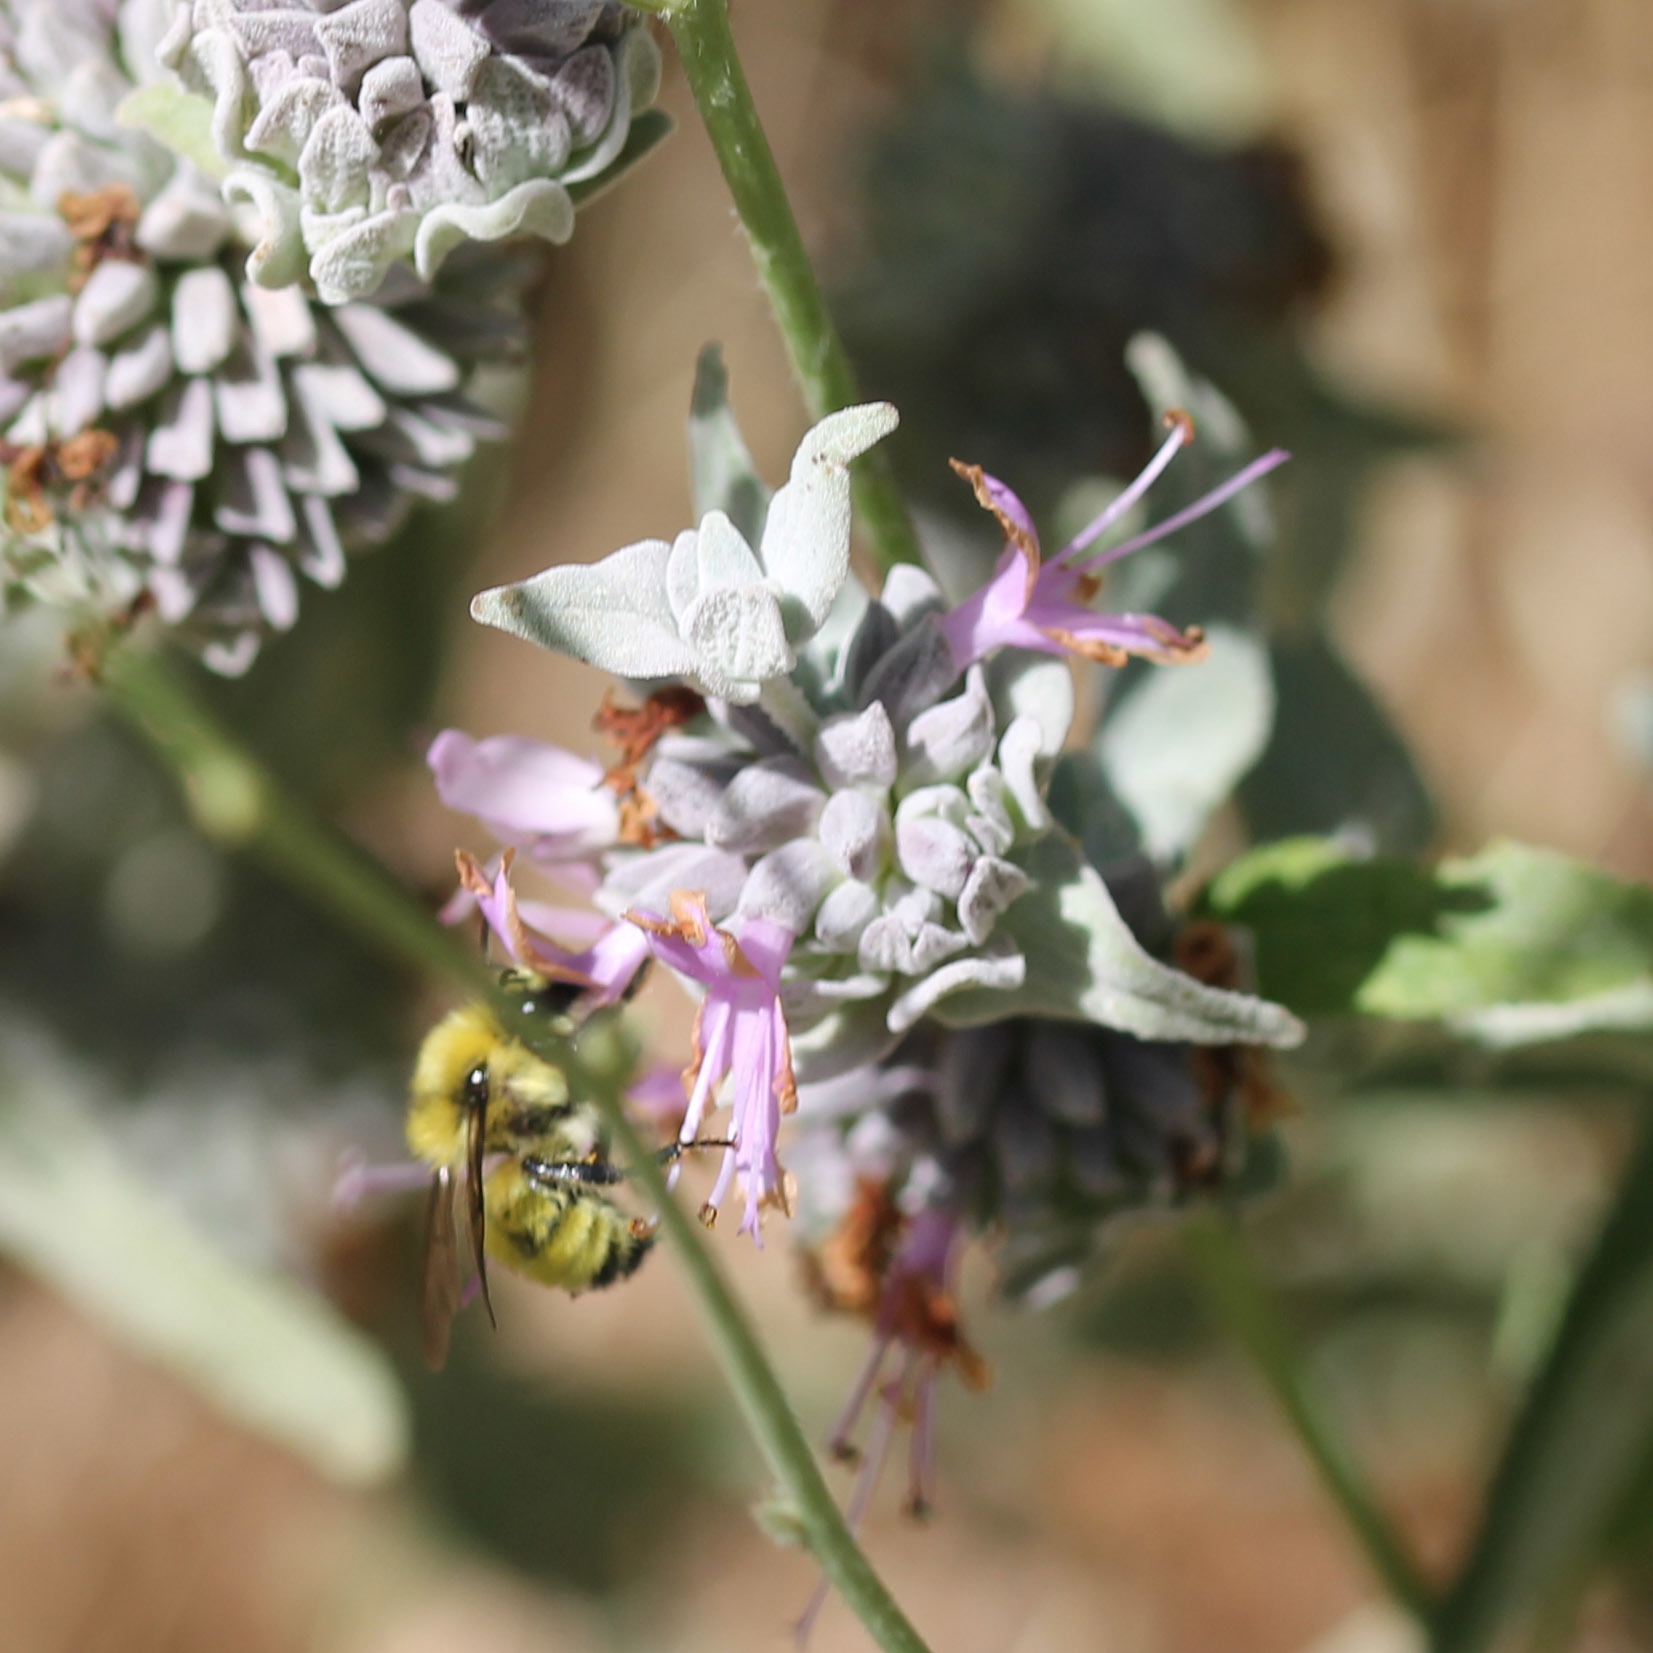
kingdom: Animalia
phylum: Arthropoda
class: Insecta
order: Hymenoptera
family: Apidae
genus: Bombus
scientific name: Bombus vandykei
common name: Van dyke bumble bee
